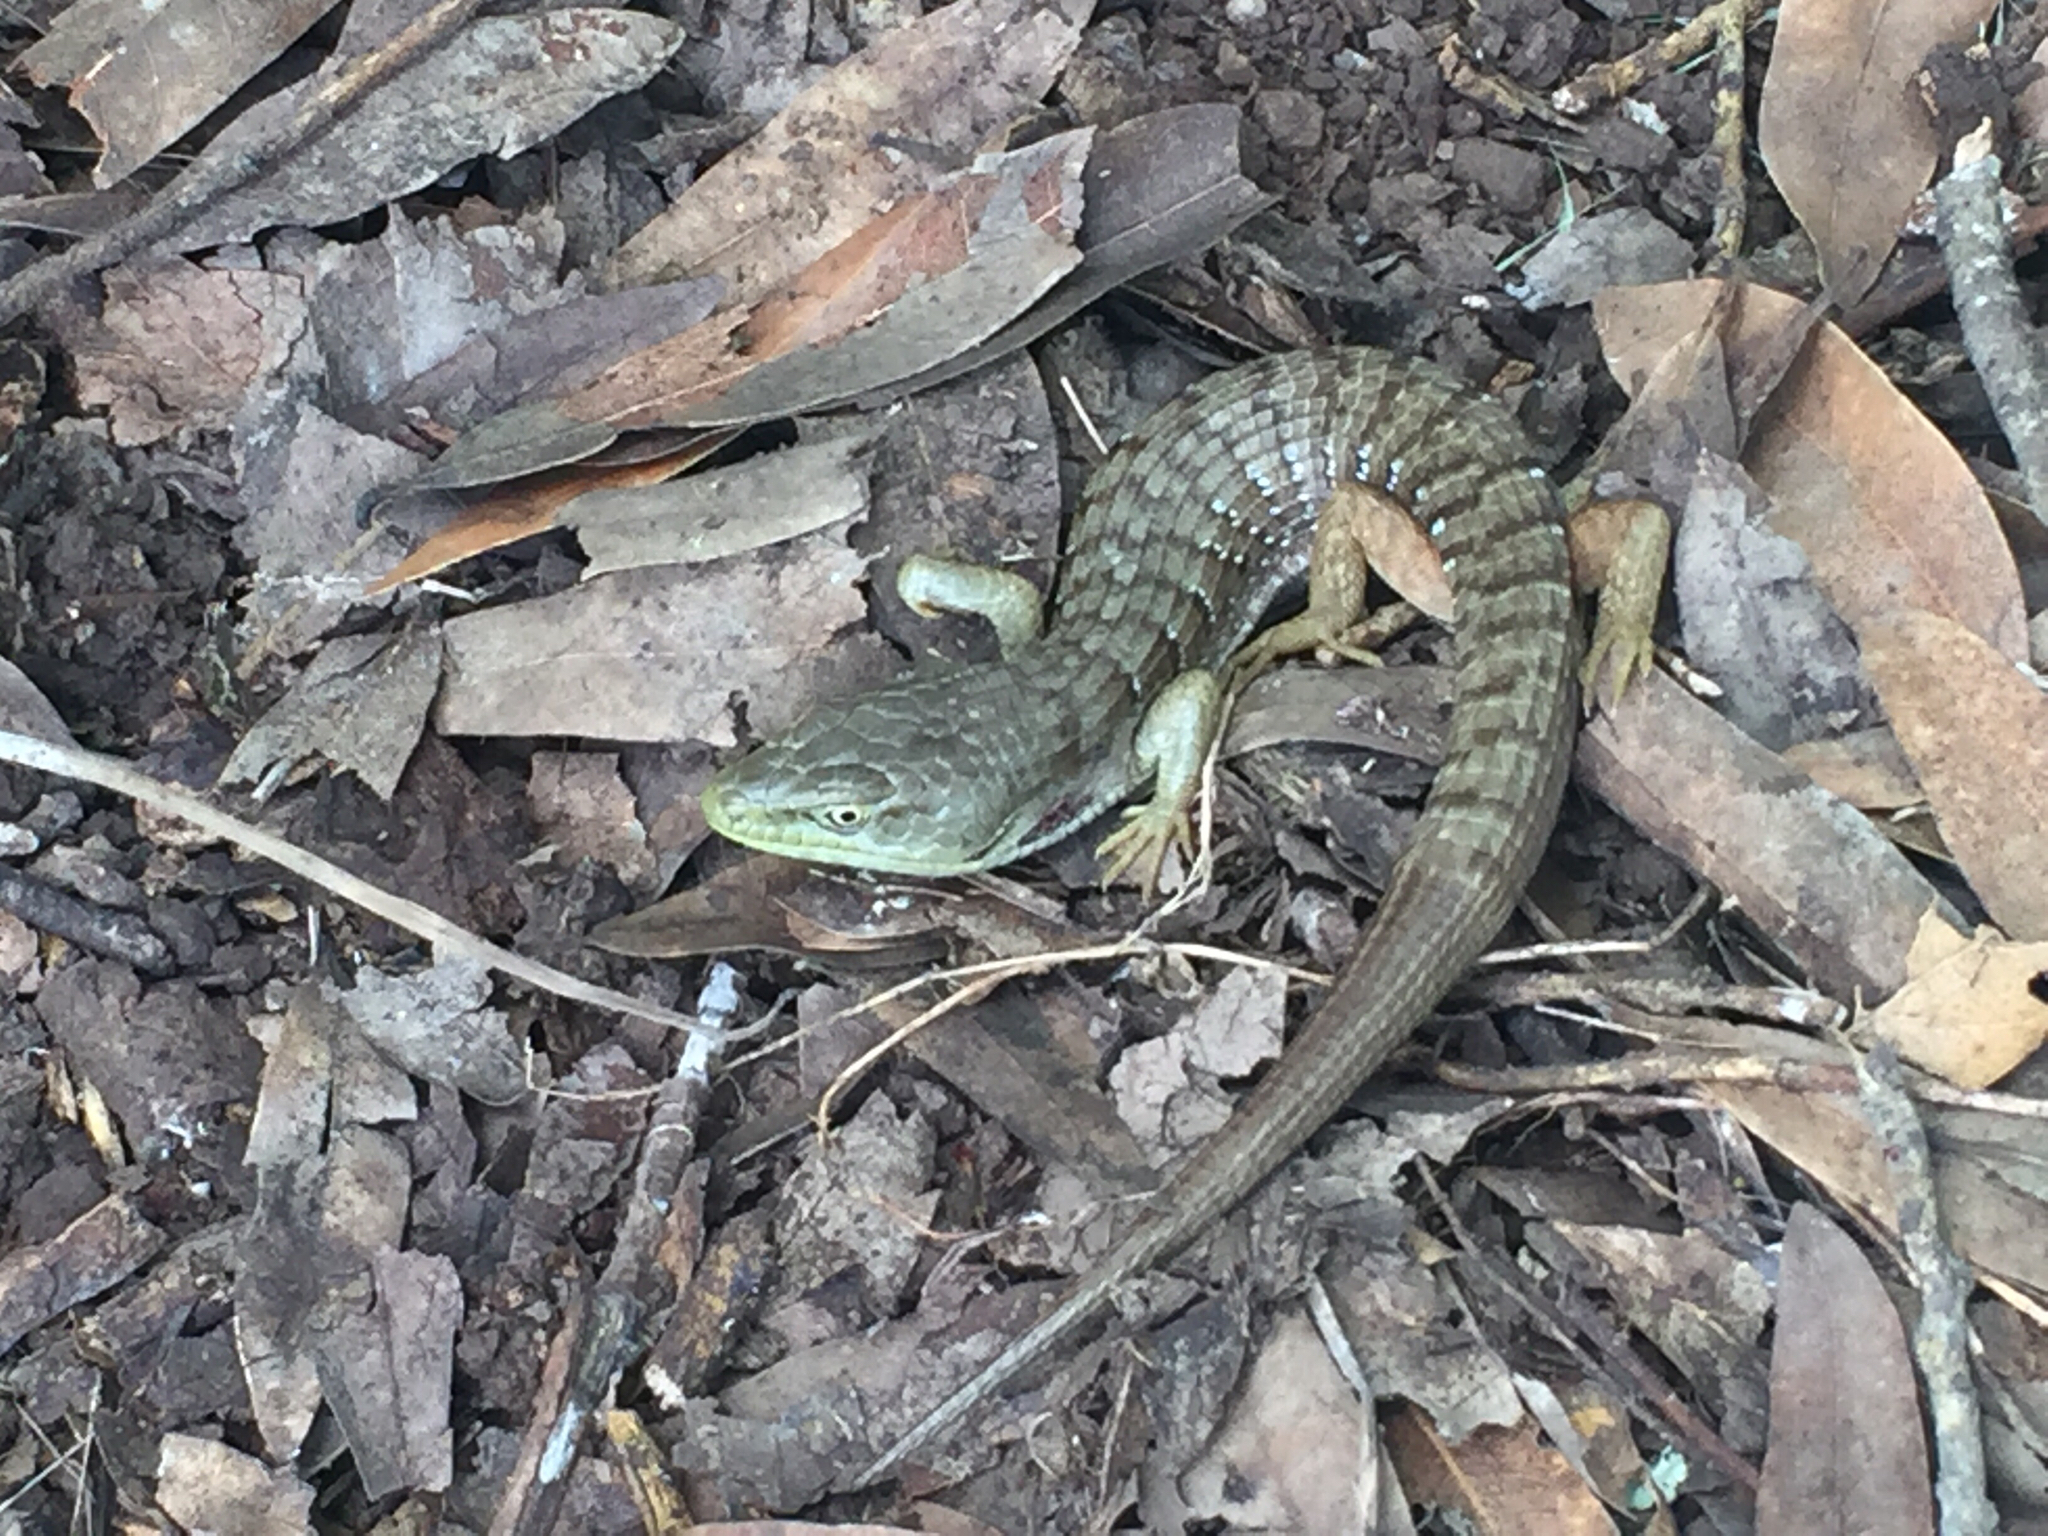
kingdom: Animalia
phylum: Chordata
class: Squamata
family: Anguidae
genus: Elgaria
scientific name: Elgaria multicarinata
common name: Southern alligator lizard
